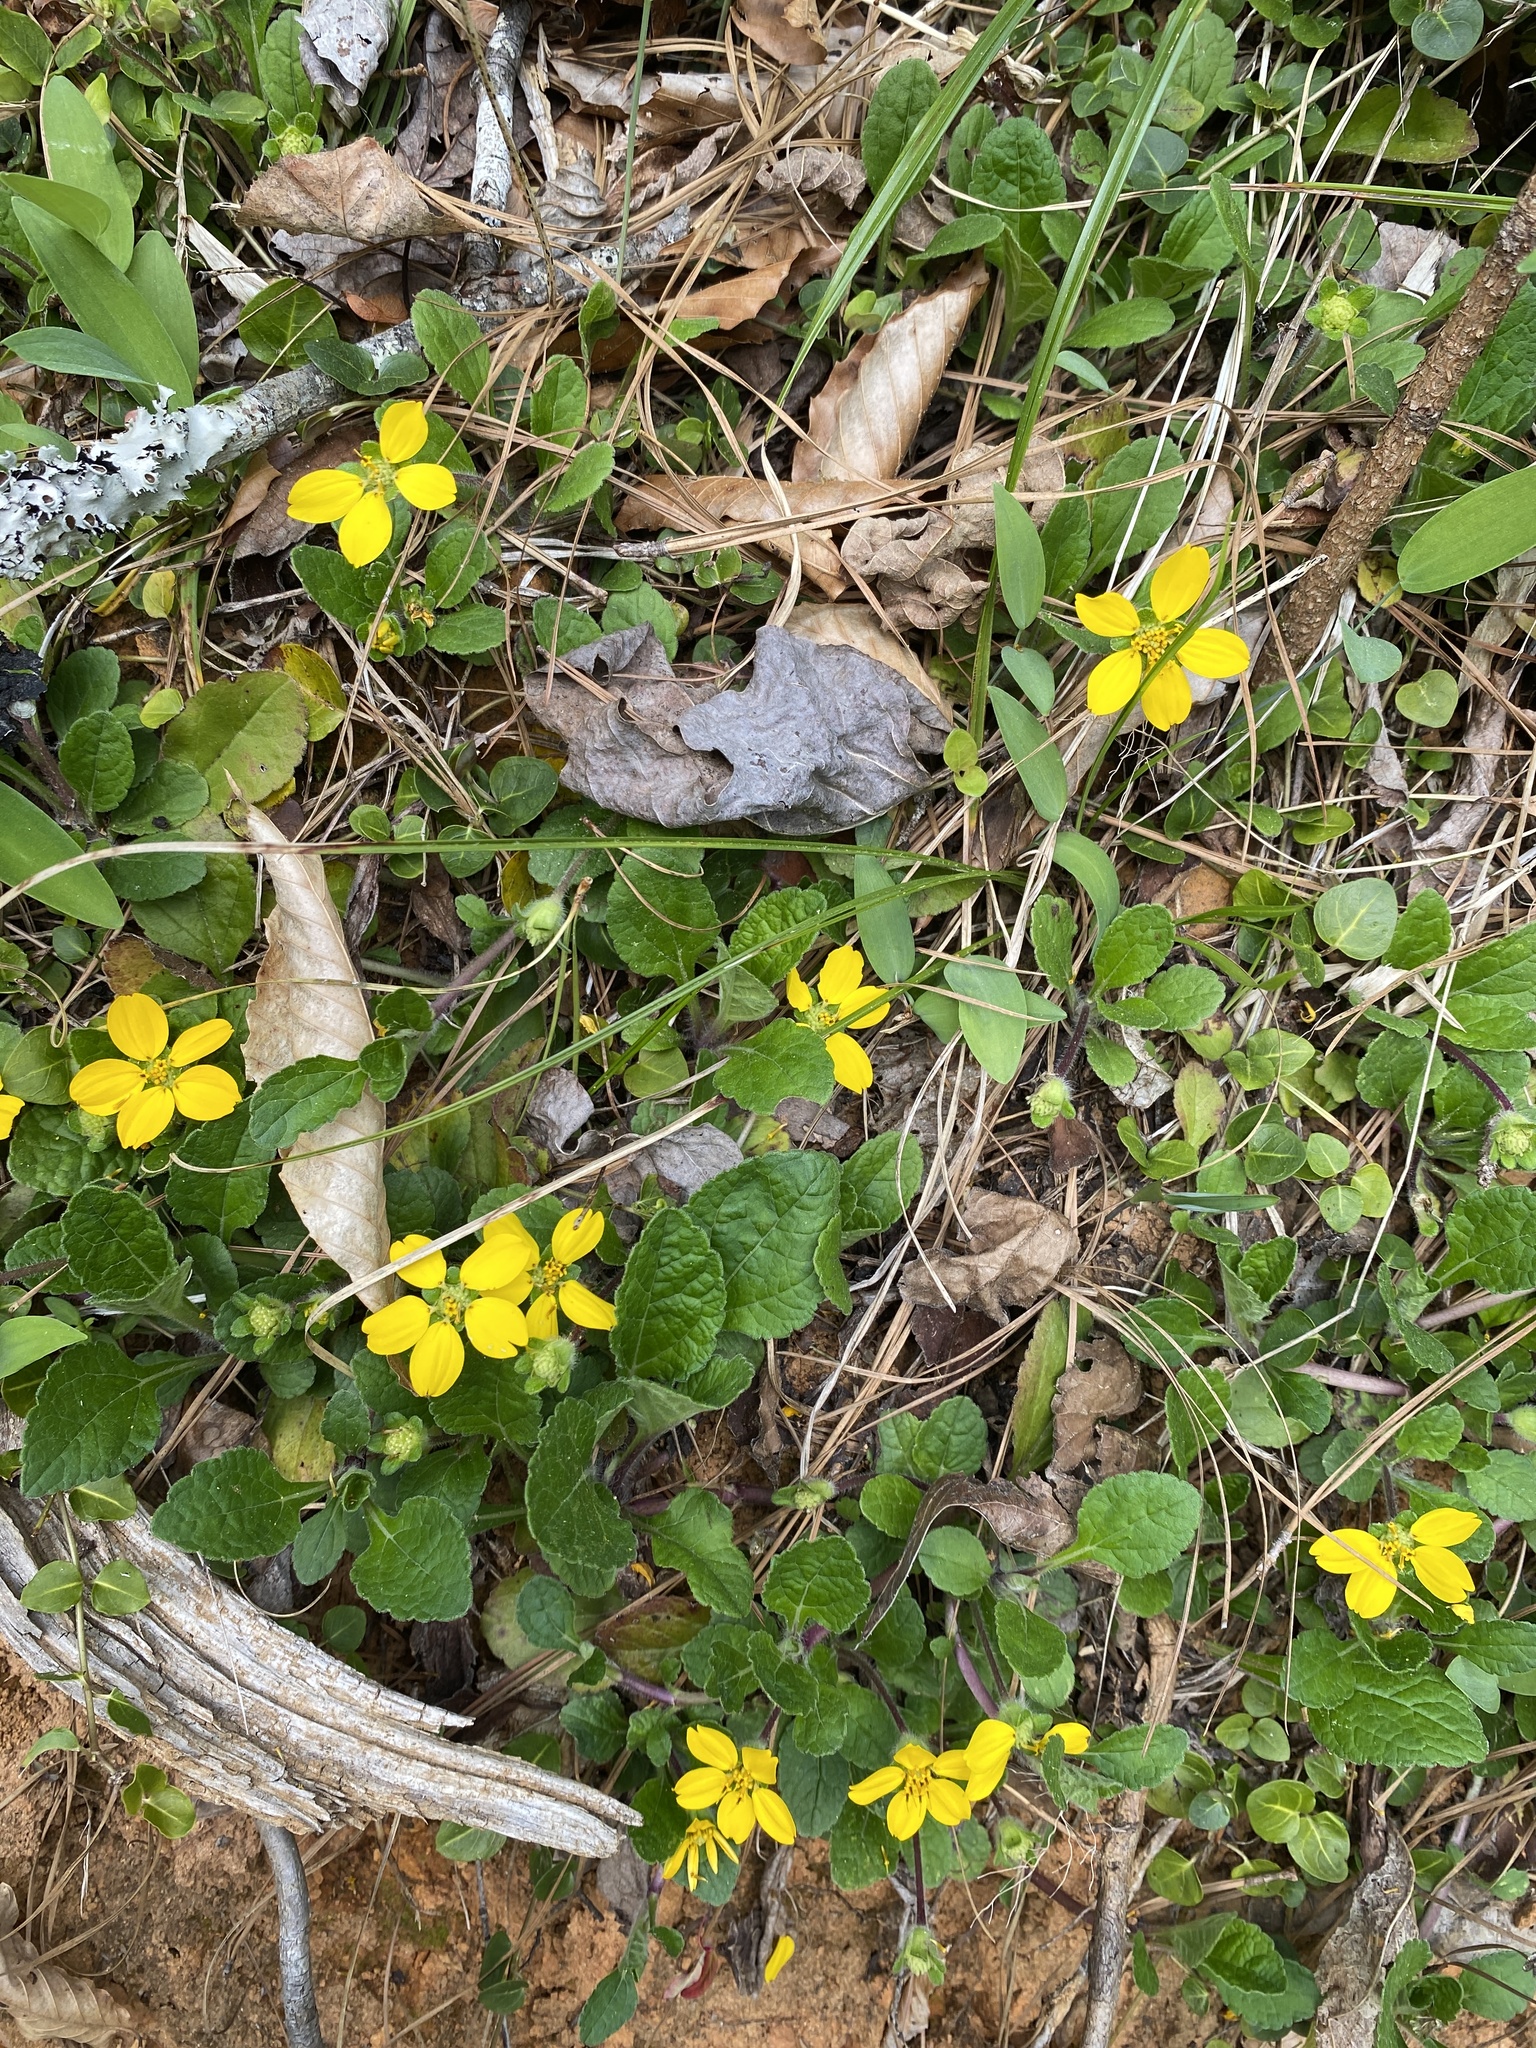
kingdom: Plantae
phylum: Tracheophyta
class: Magnoliopsida
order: Asterales
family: Asteraceae
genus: Chrysogonum
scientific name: Chrysogonum virginianum
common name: Golden-knee
